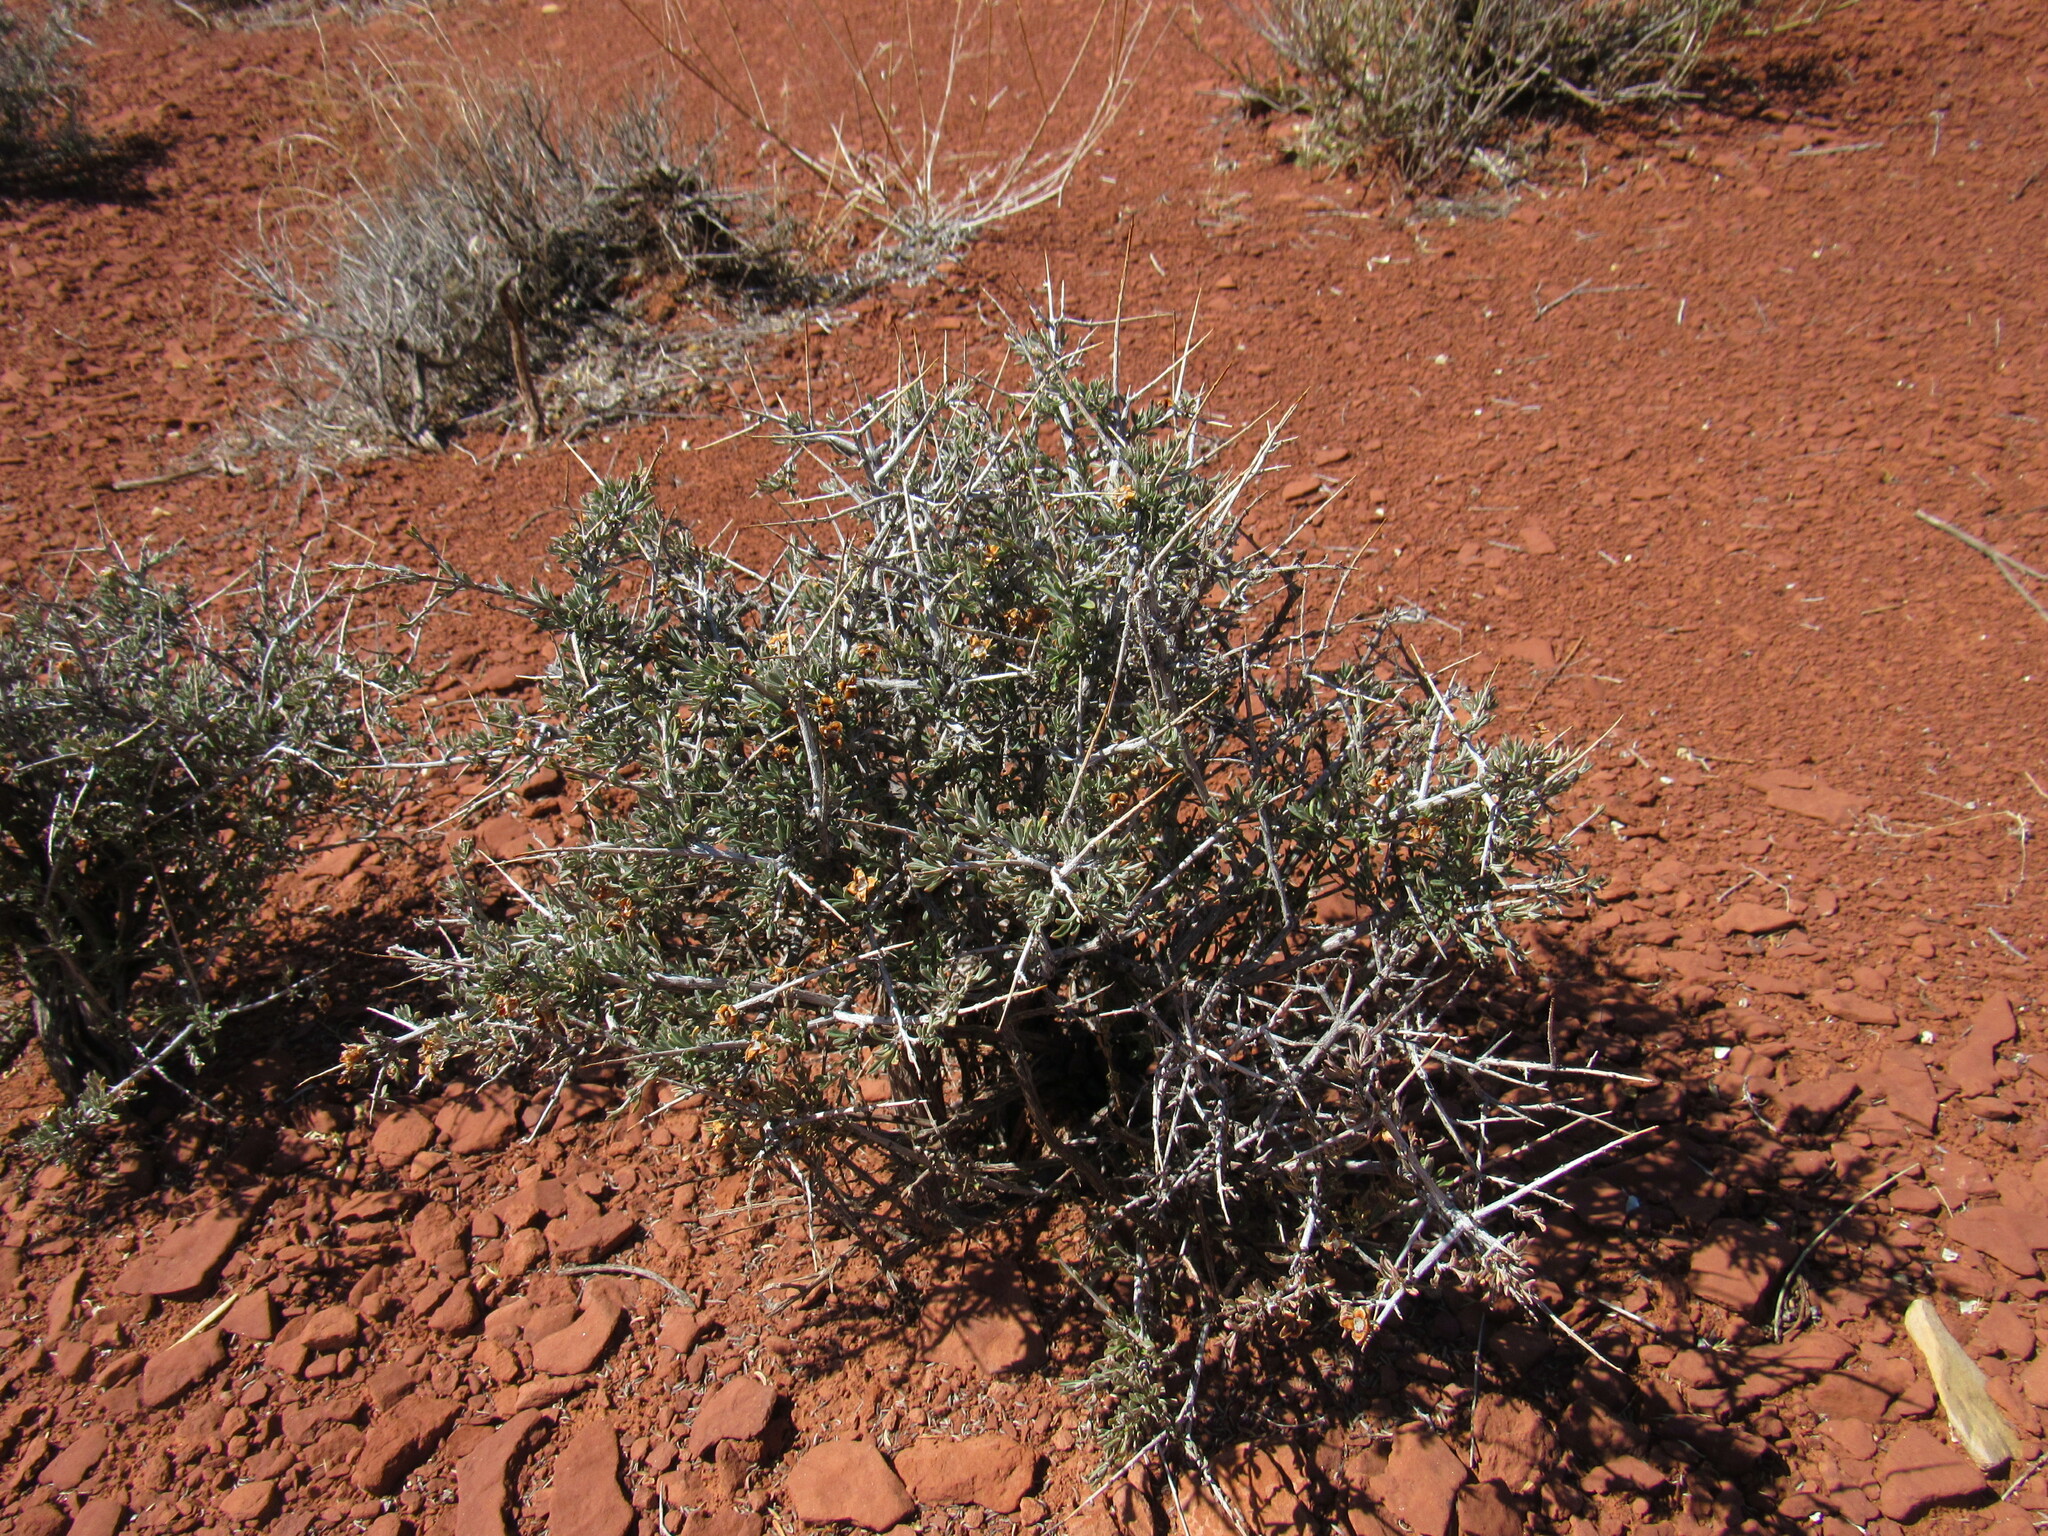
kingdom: Plantae
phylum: Tracheophyta
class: Magnoliopsida
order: Rosales
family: Rosaceae
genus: Coleogyne
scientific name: Coleogyne ramosissima
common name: Blackbrush
